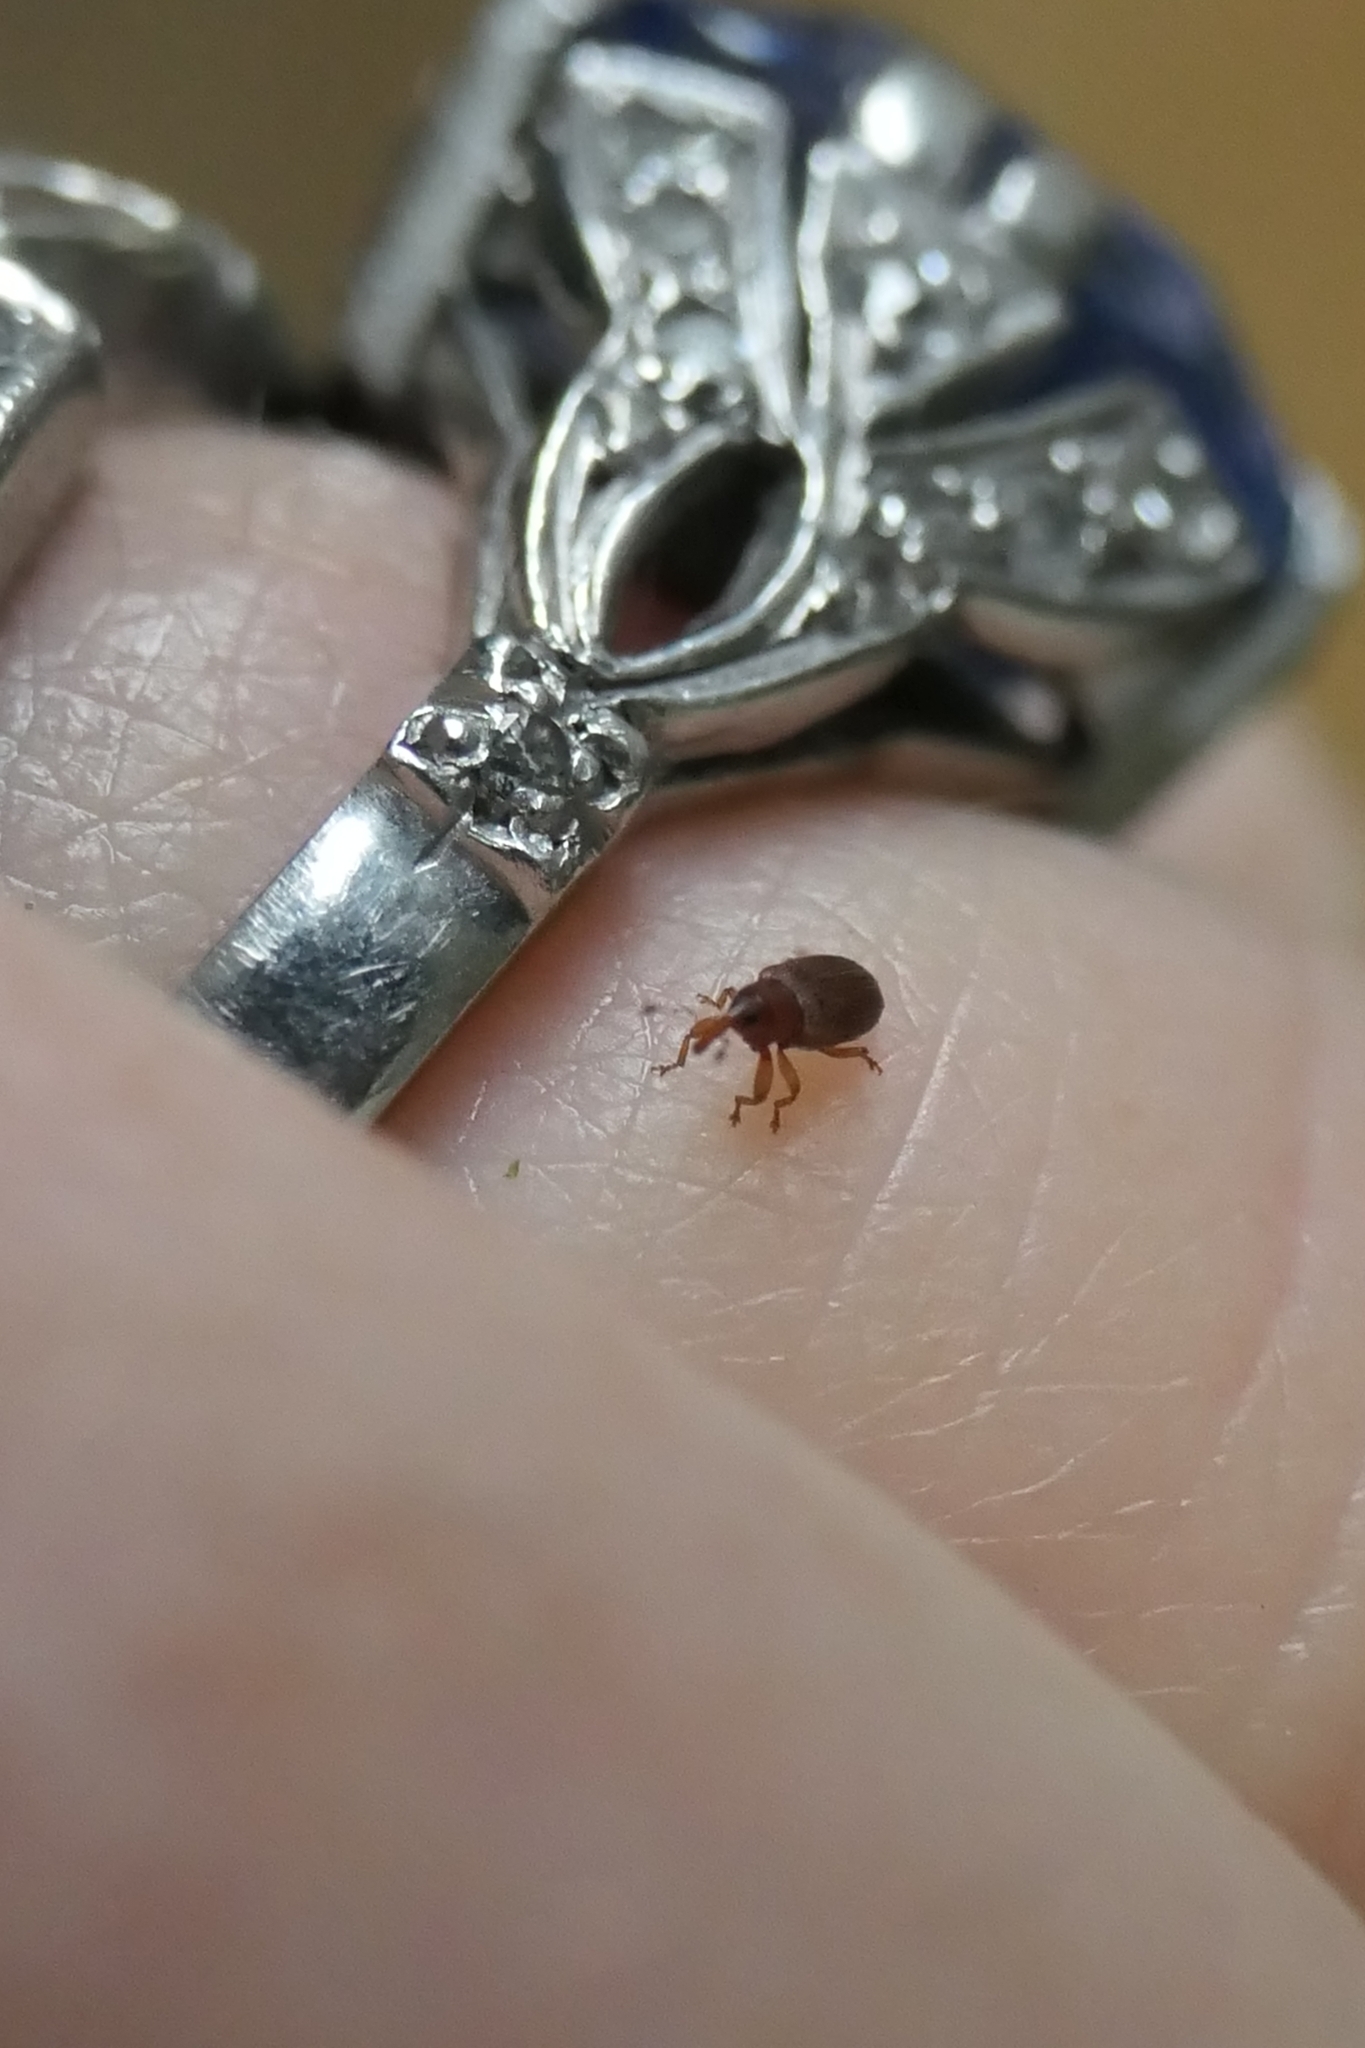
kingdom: Animalia
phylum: Arthropoda
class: Insecta
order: Coleoptera
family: Curculionidae
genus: Aneuma
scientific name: Aneuma
